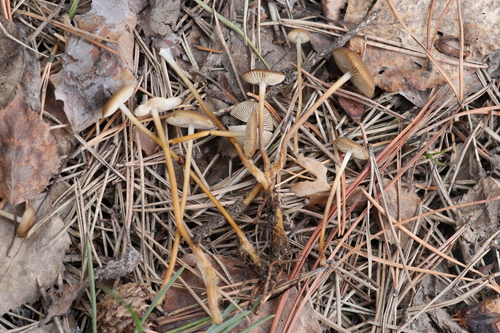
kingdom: Fungi
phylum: Basidiomycota
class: Agaricomycetes
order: Agaricales
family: Physalacriaceae
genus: Strobilurus
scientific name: Strobilurus stephanocystis
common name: Russian conecap
